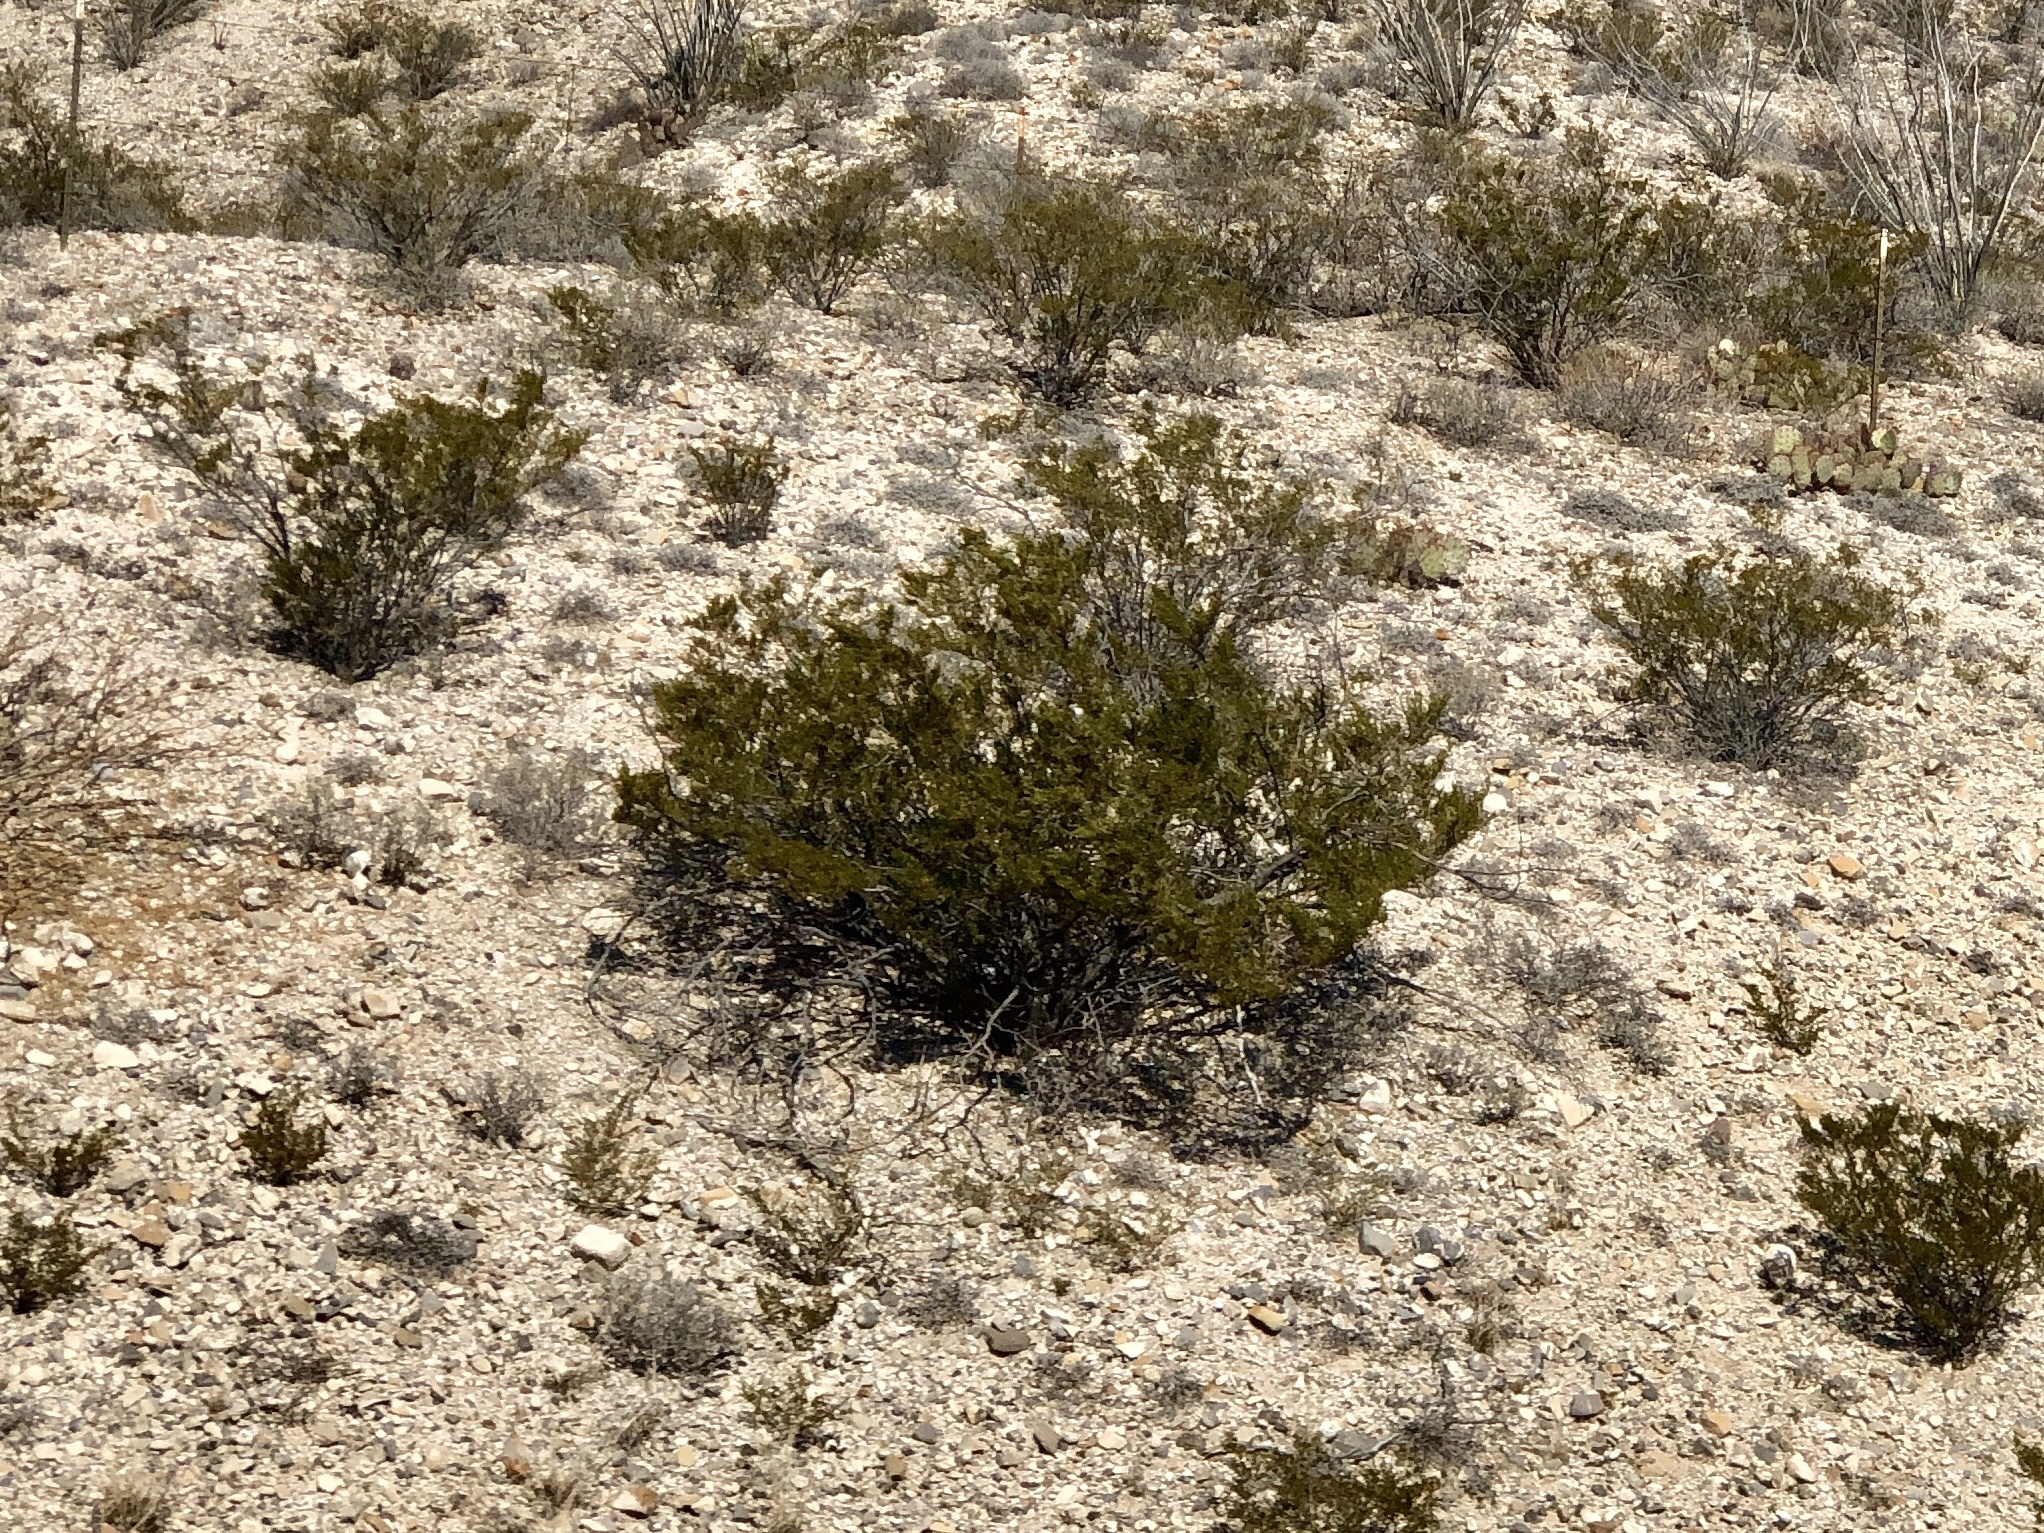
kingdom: Plantae
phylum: Tracheophyta
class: Magnoliopsida
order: Zygophyllales
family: Zygophyllaceae
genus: Larrea
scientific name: Larrea tridentata
